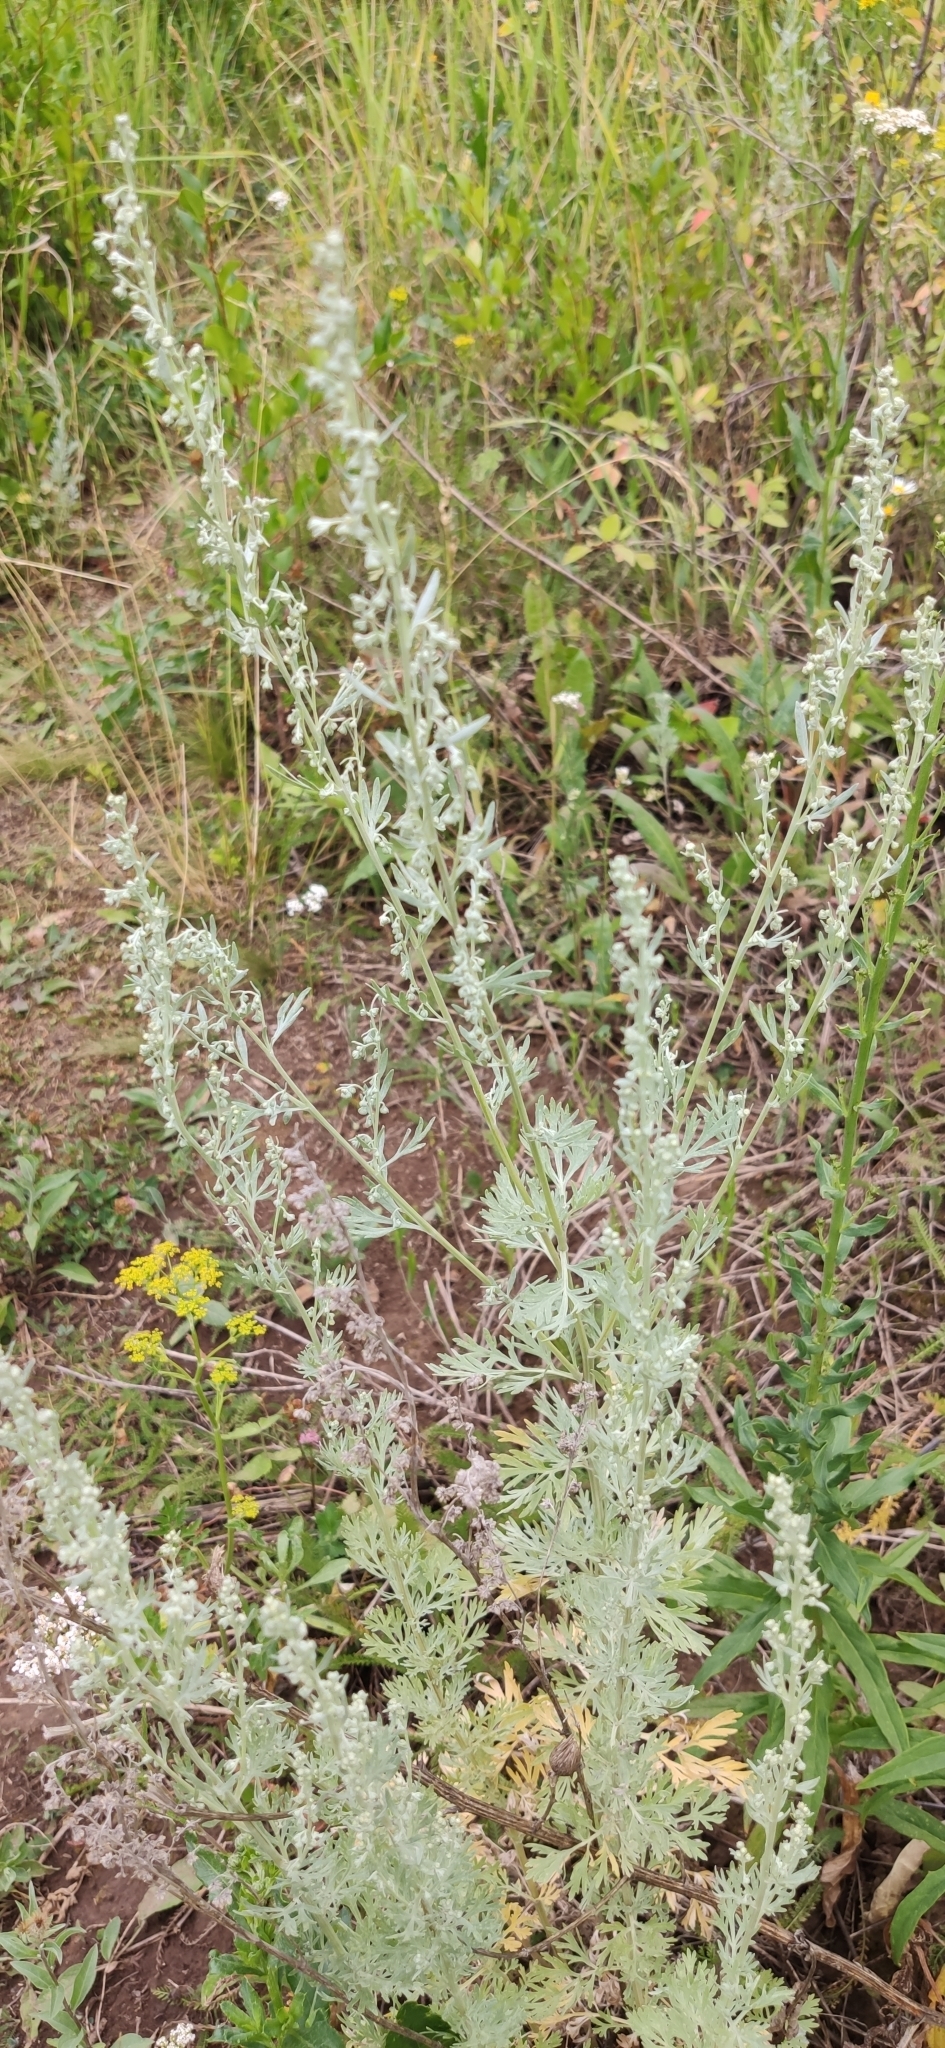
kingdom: Plantae
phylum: Tracheophyta
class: Magnoliopsida
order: Asterales
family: Asteraceae
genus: Artemisia
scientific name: Artemisia absinthium
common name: Wormwood
